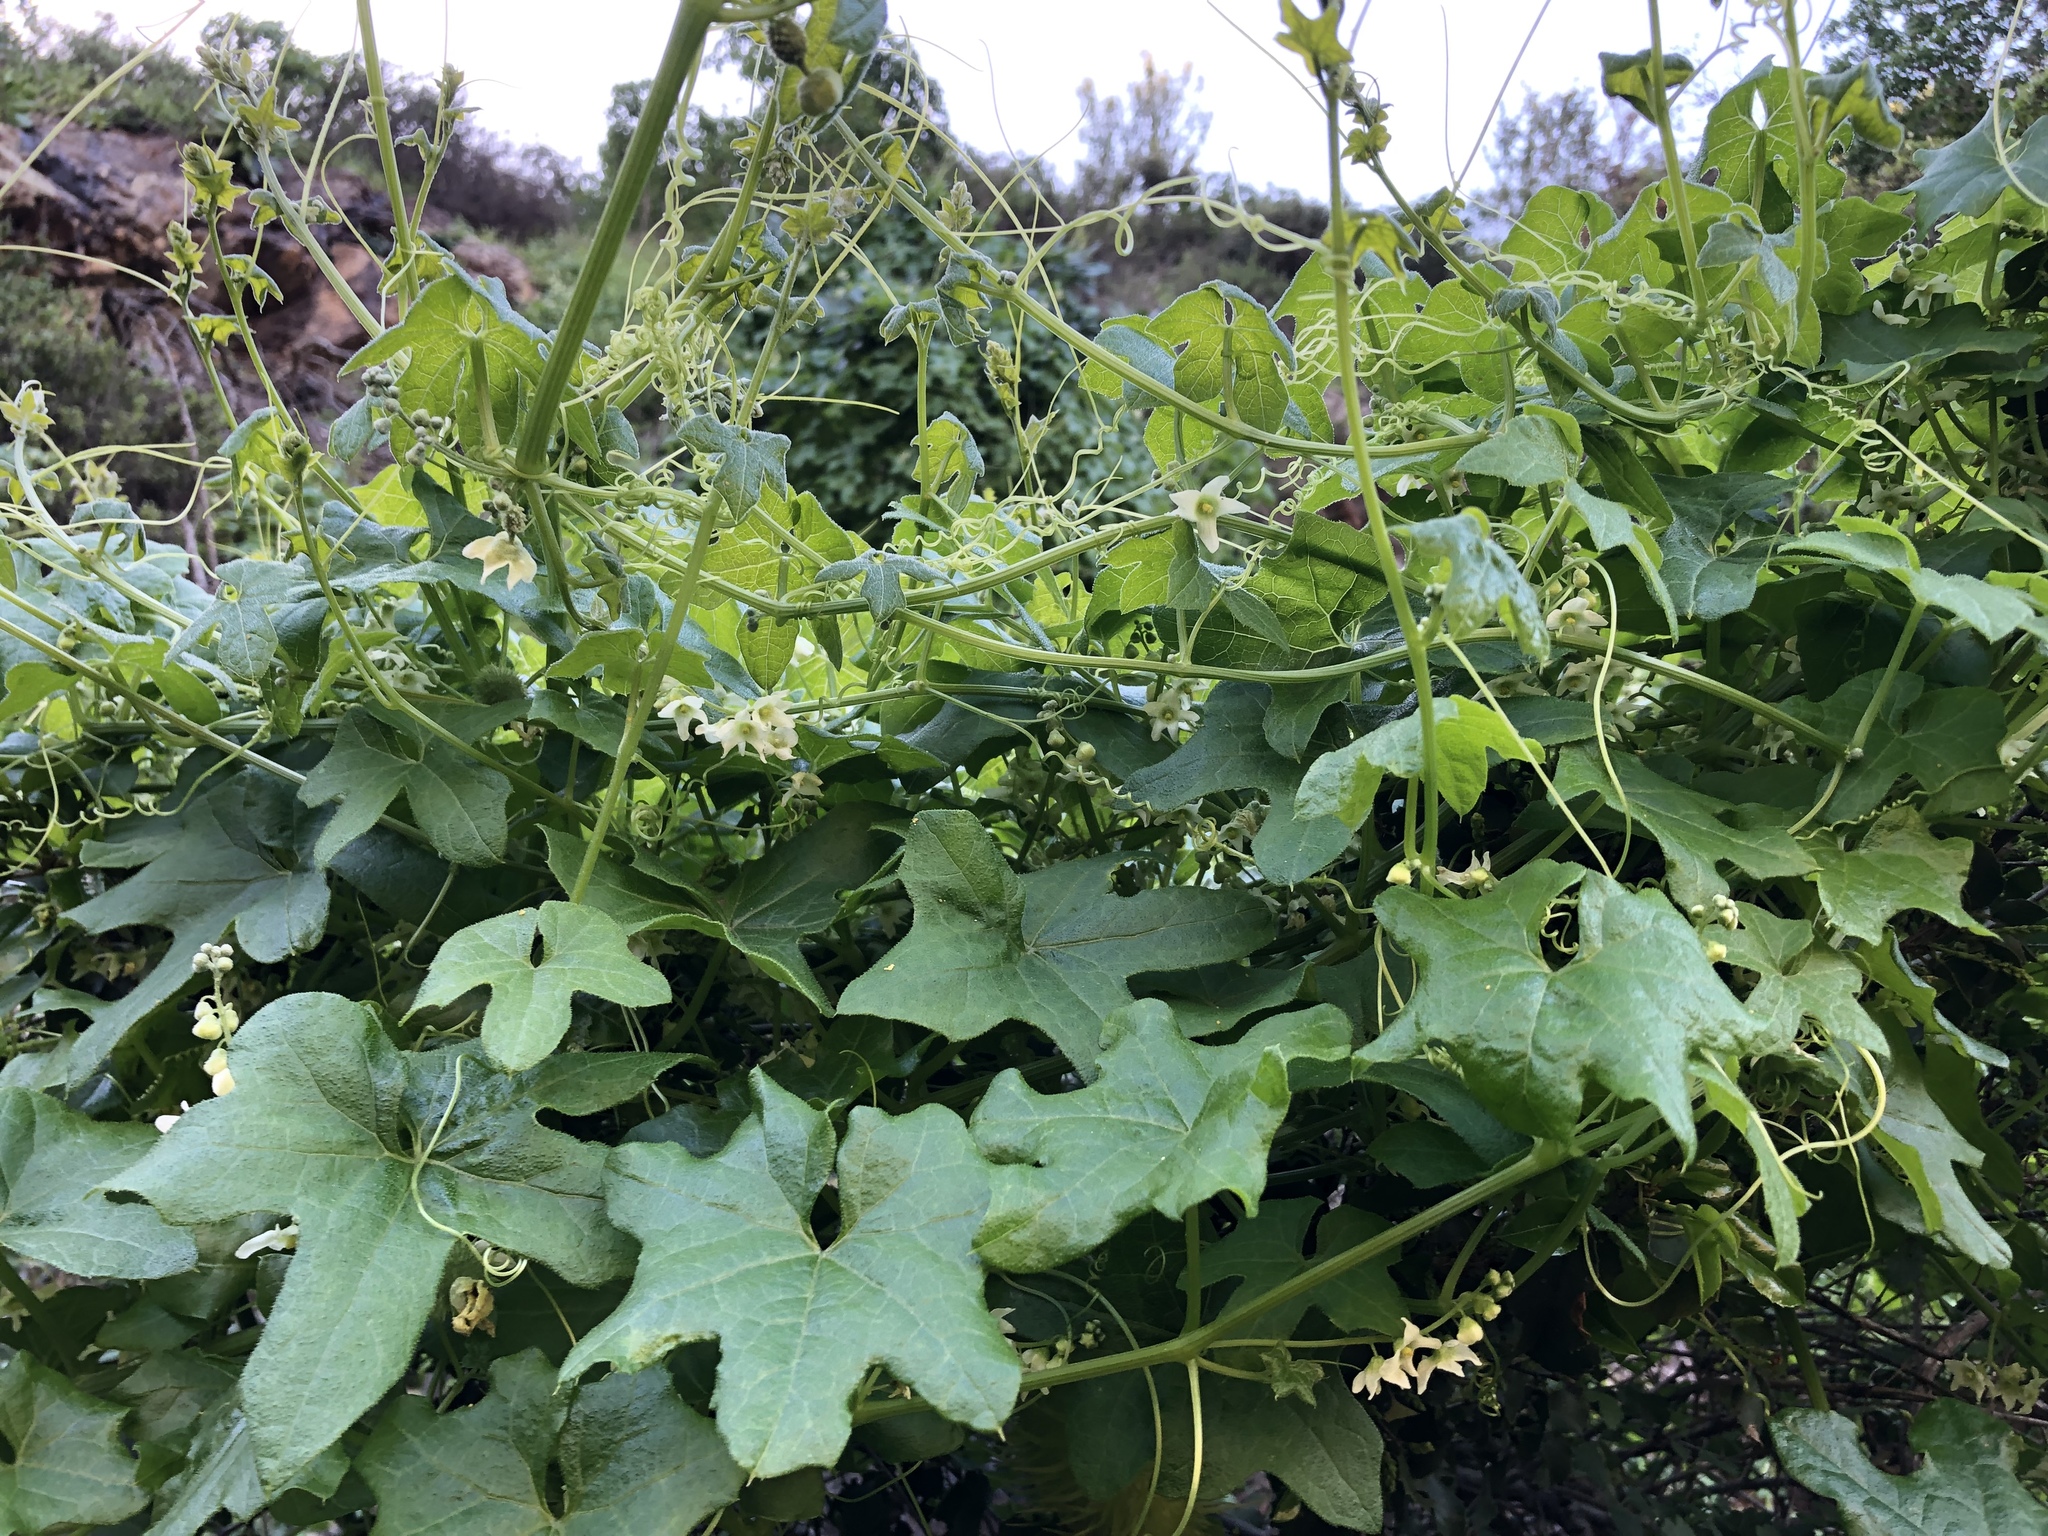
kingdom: Plantae
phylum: Tracheophyta
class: Magnoliopsida
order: Cucurbitales
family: Cucurbitaceae
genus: Marah
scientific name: Marah macrocarpa
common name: Cucamonga manroot
